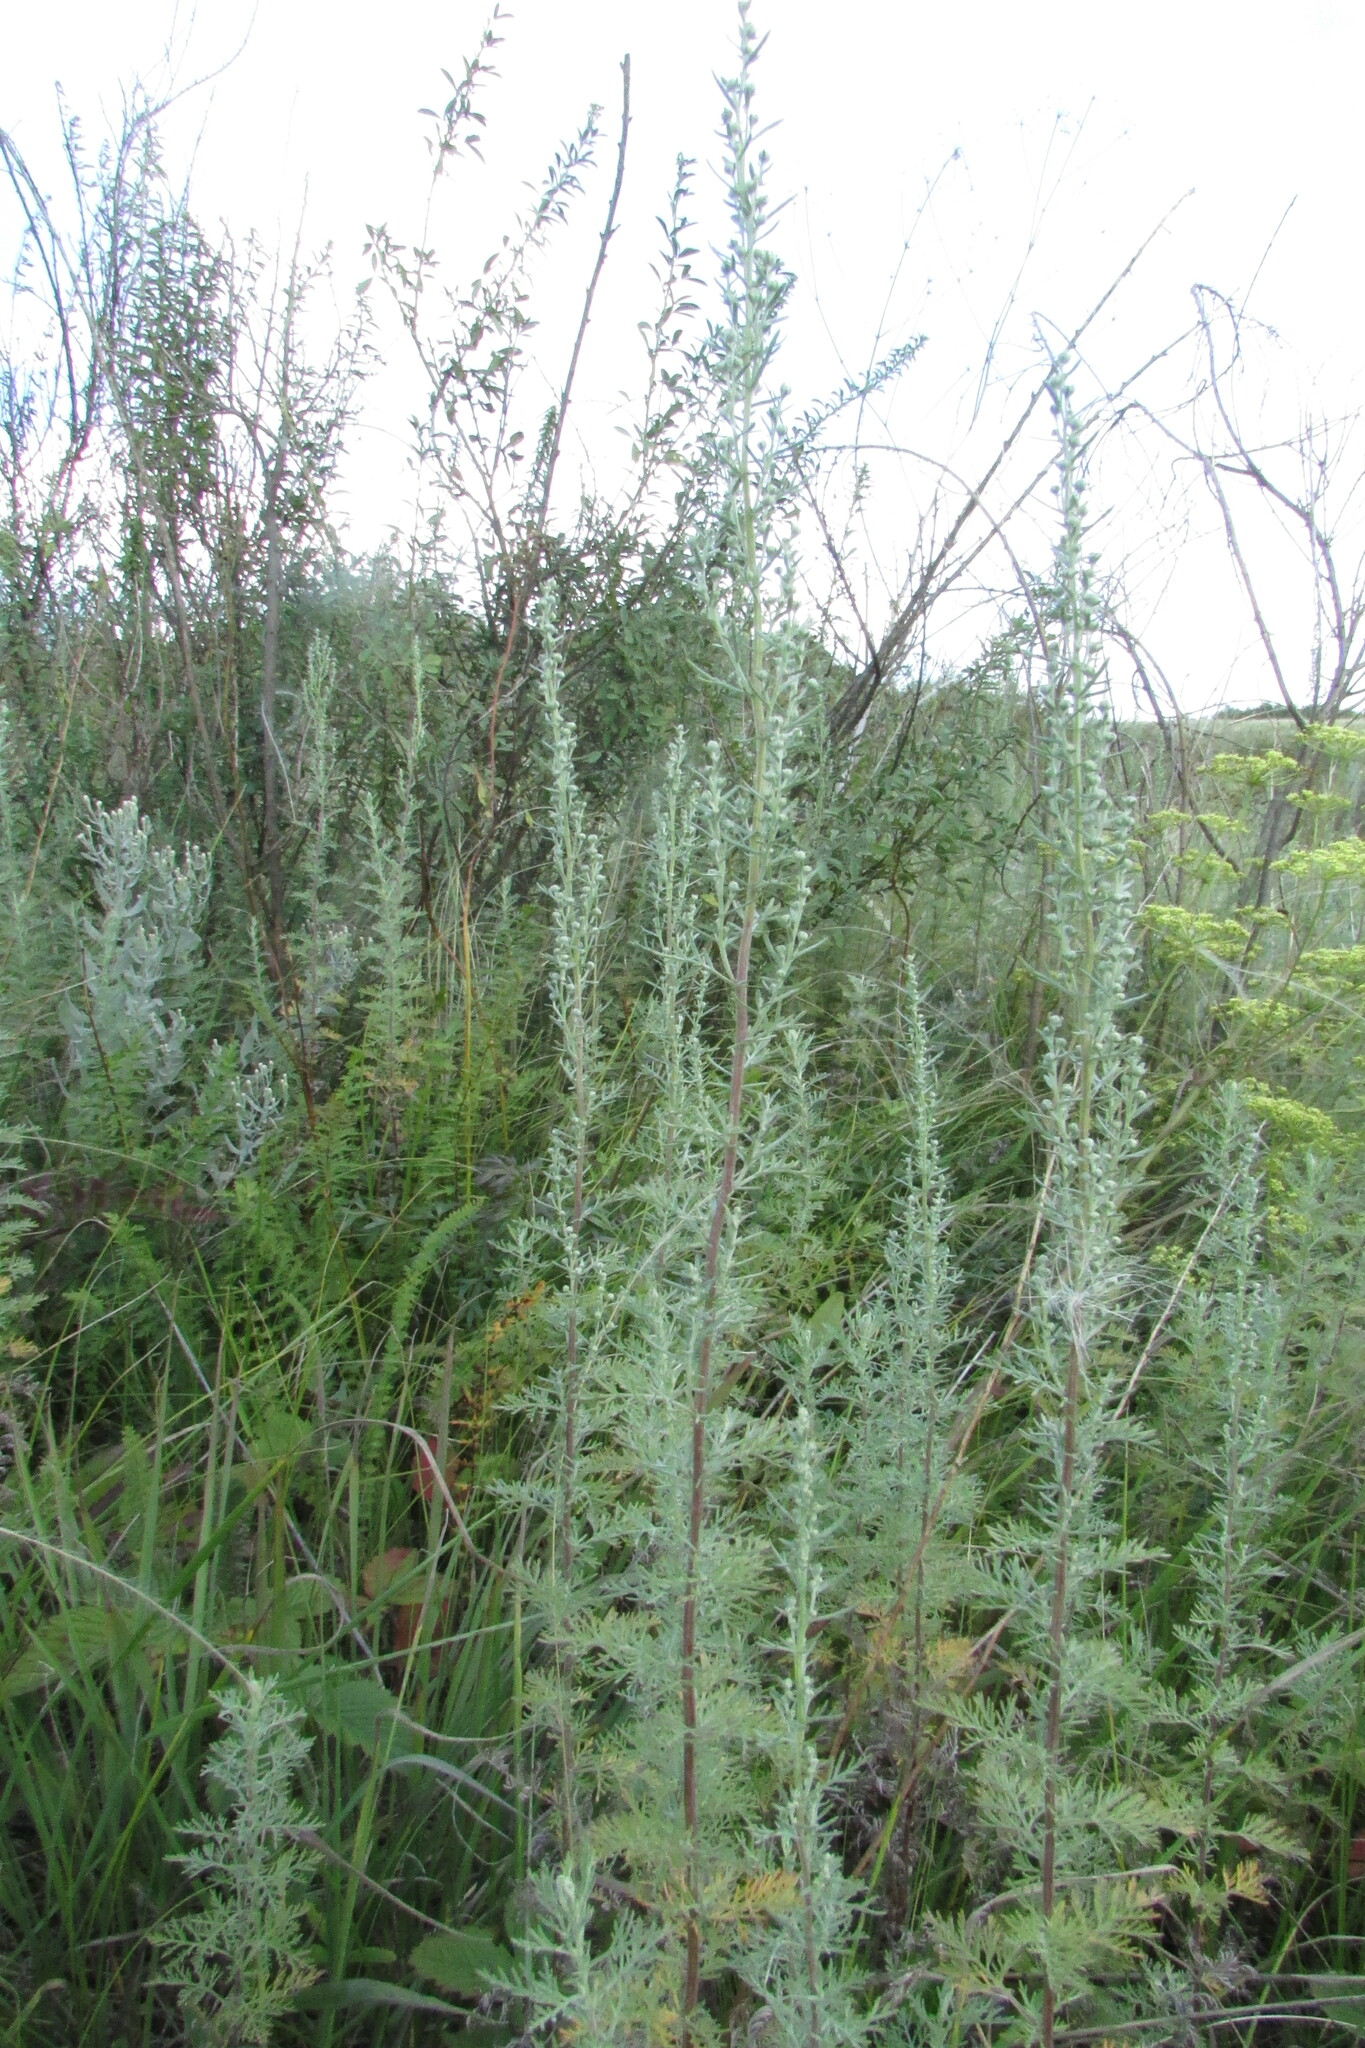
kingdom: Plantae
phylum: Tracheophyta
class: Magnoliopsida
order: Asterales
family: Asteraceae
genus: Artemisia
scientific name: Artemisia pontica
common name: Roman wormwood
